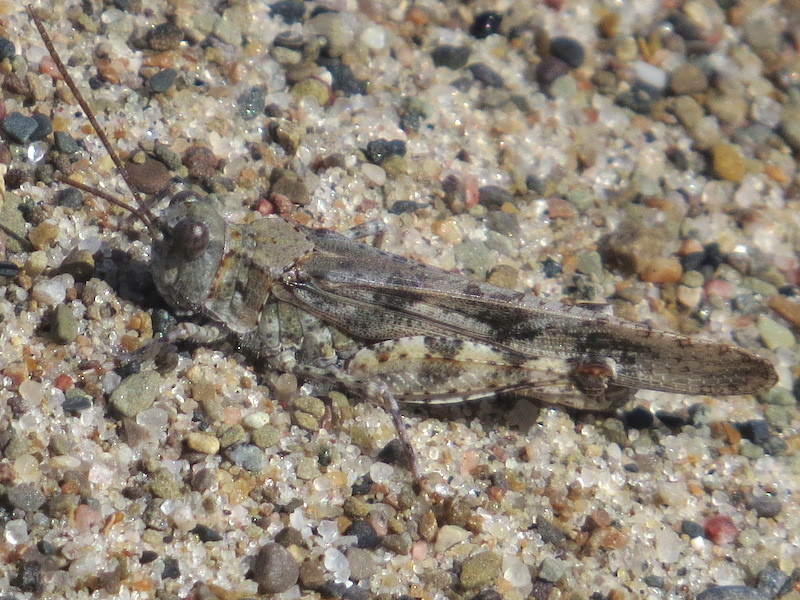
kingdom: Animalia
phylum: Arthropoda
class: Insecta
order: Orthoptera
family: Acrididae
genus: Trimerotropis
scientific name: Trimerotropis maritima
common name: Seaside locust
